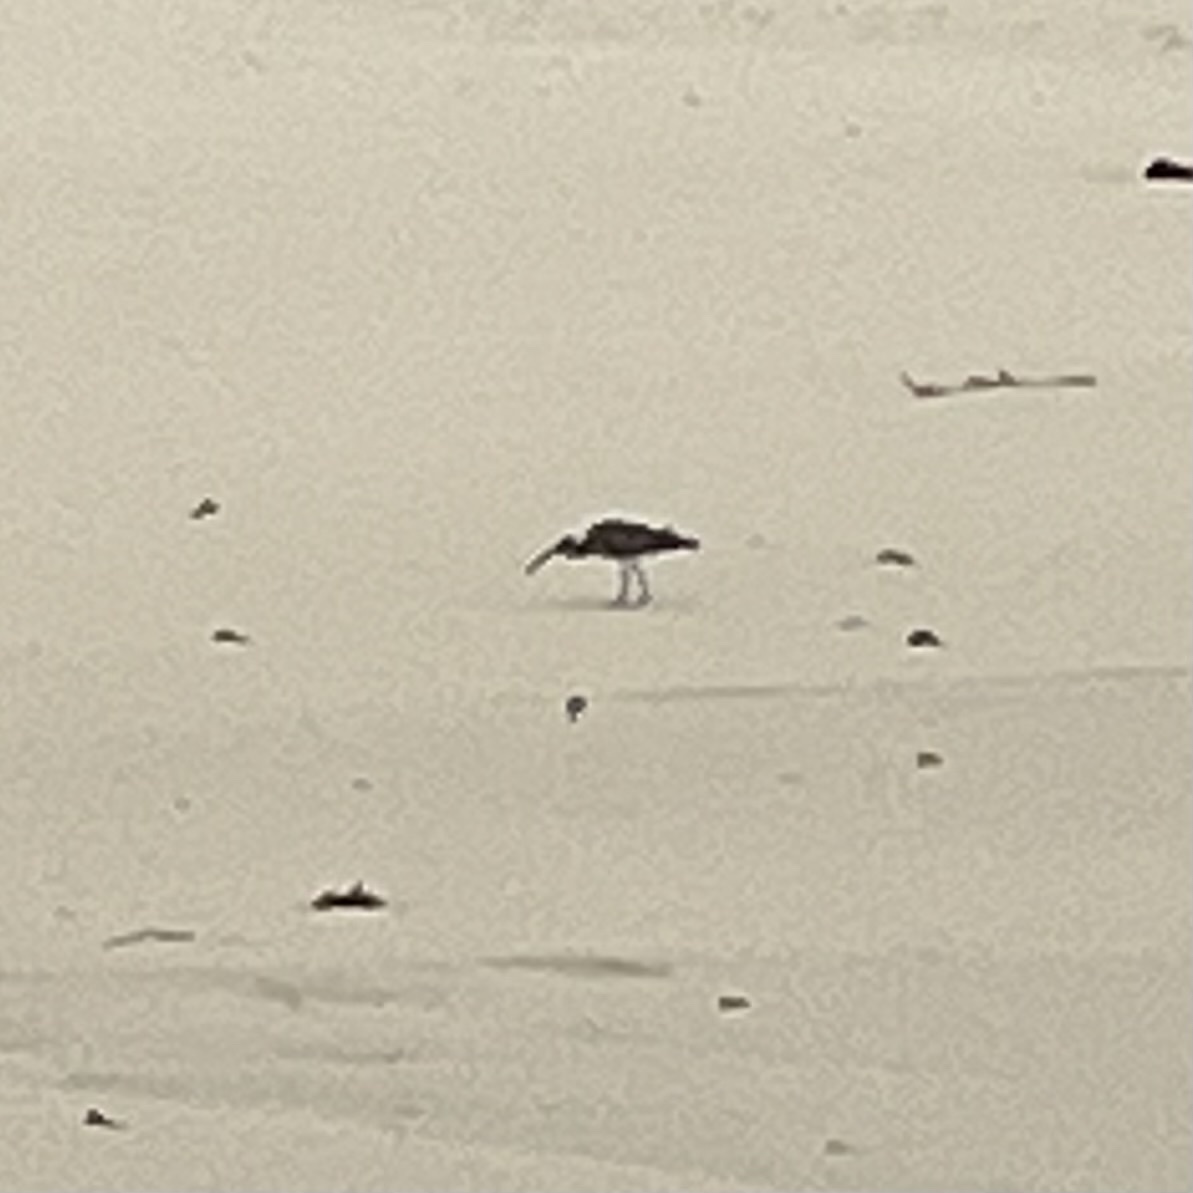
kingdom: Animalia
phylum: Chordata
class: Aves
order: Charadriiformes
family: Scolopacidae
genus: Numenius
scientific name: Numenius phaeopus
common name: Whimbrel
